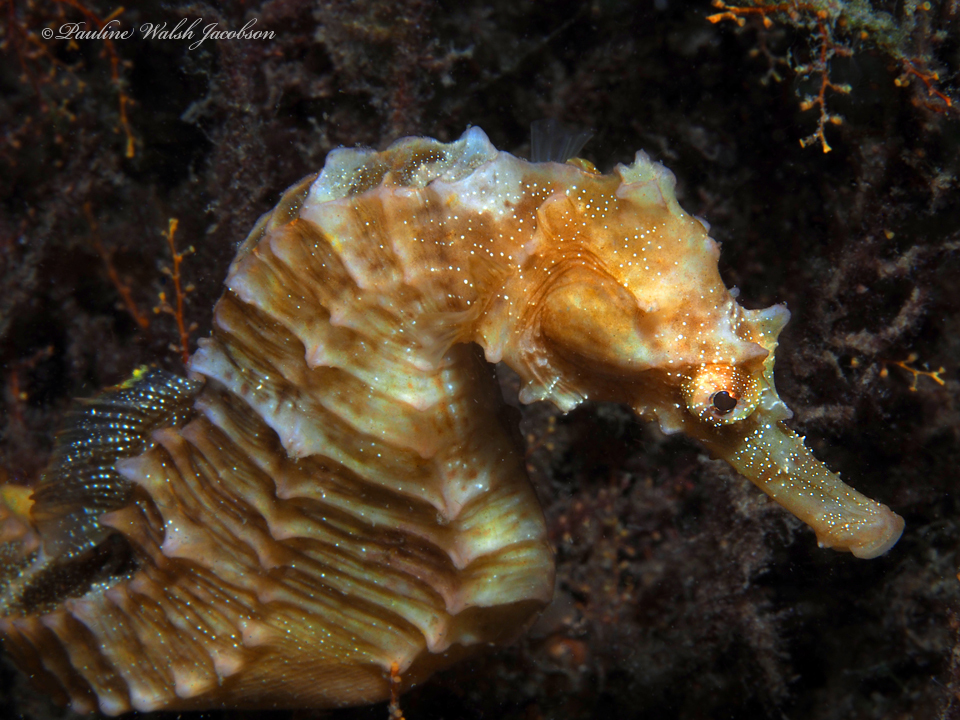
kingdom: Animalia
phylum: Chordata
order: Syngnathiformes
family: Syngnathidae
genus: Hippocampus
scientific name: Hippocampus erectus
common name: Lined seahorse
